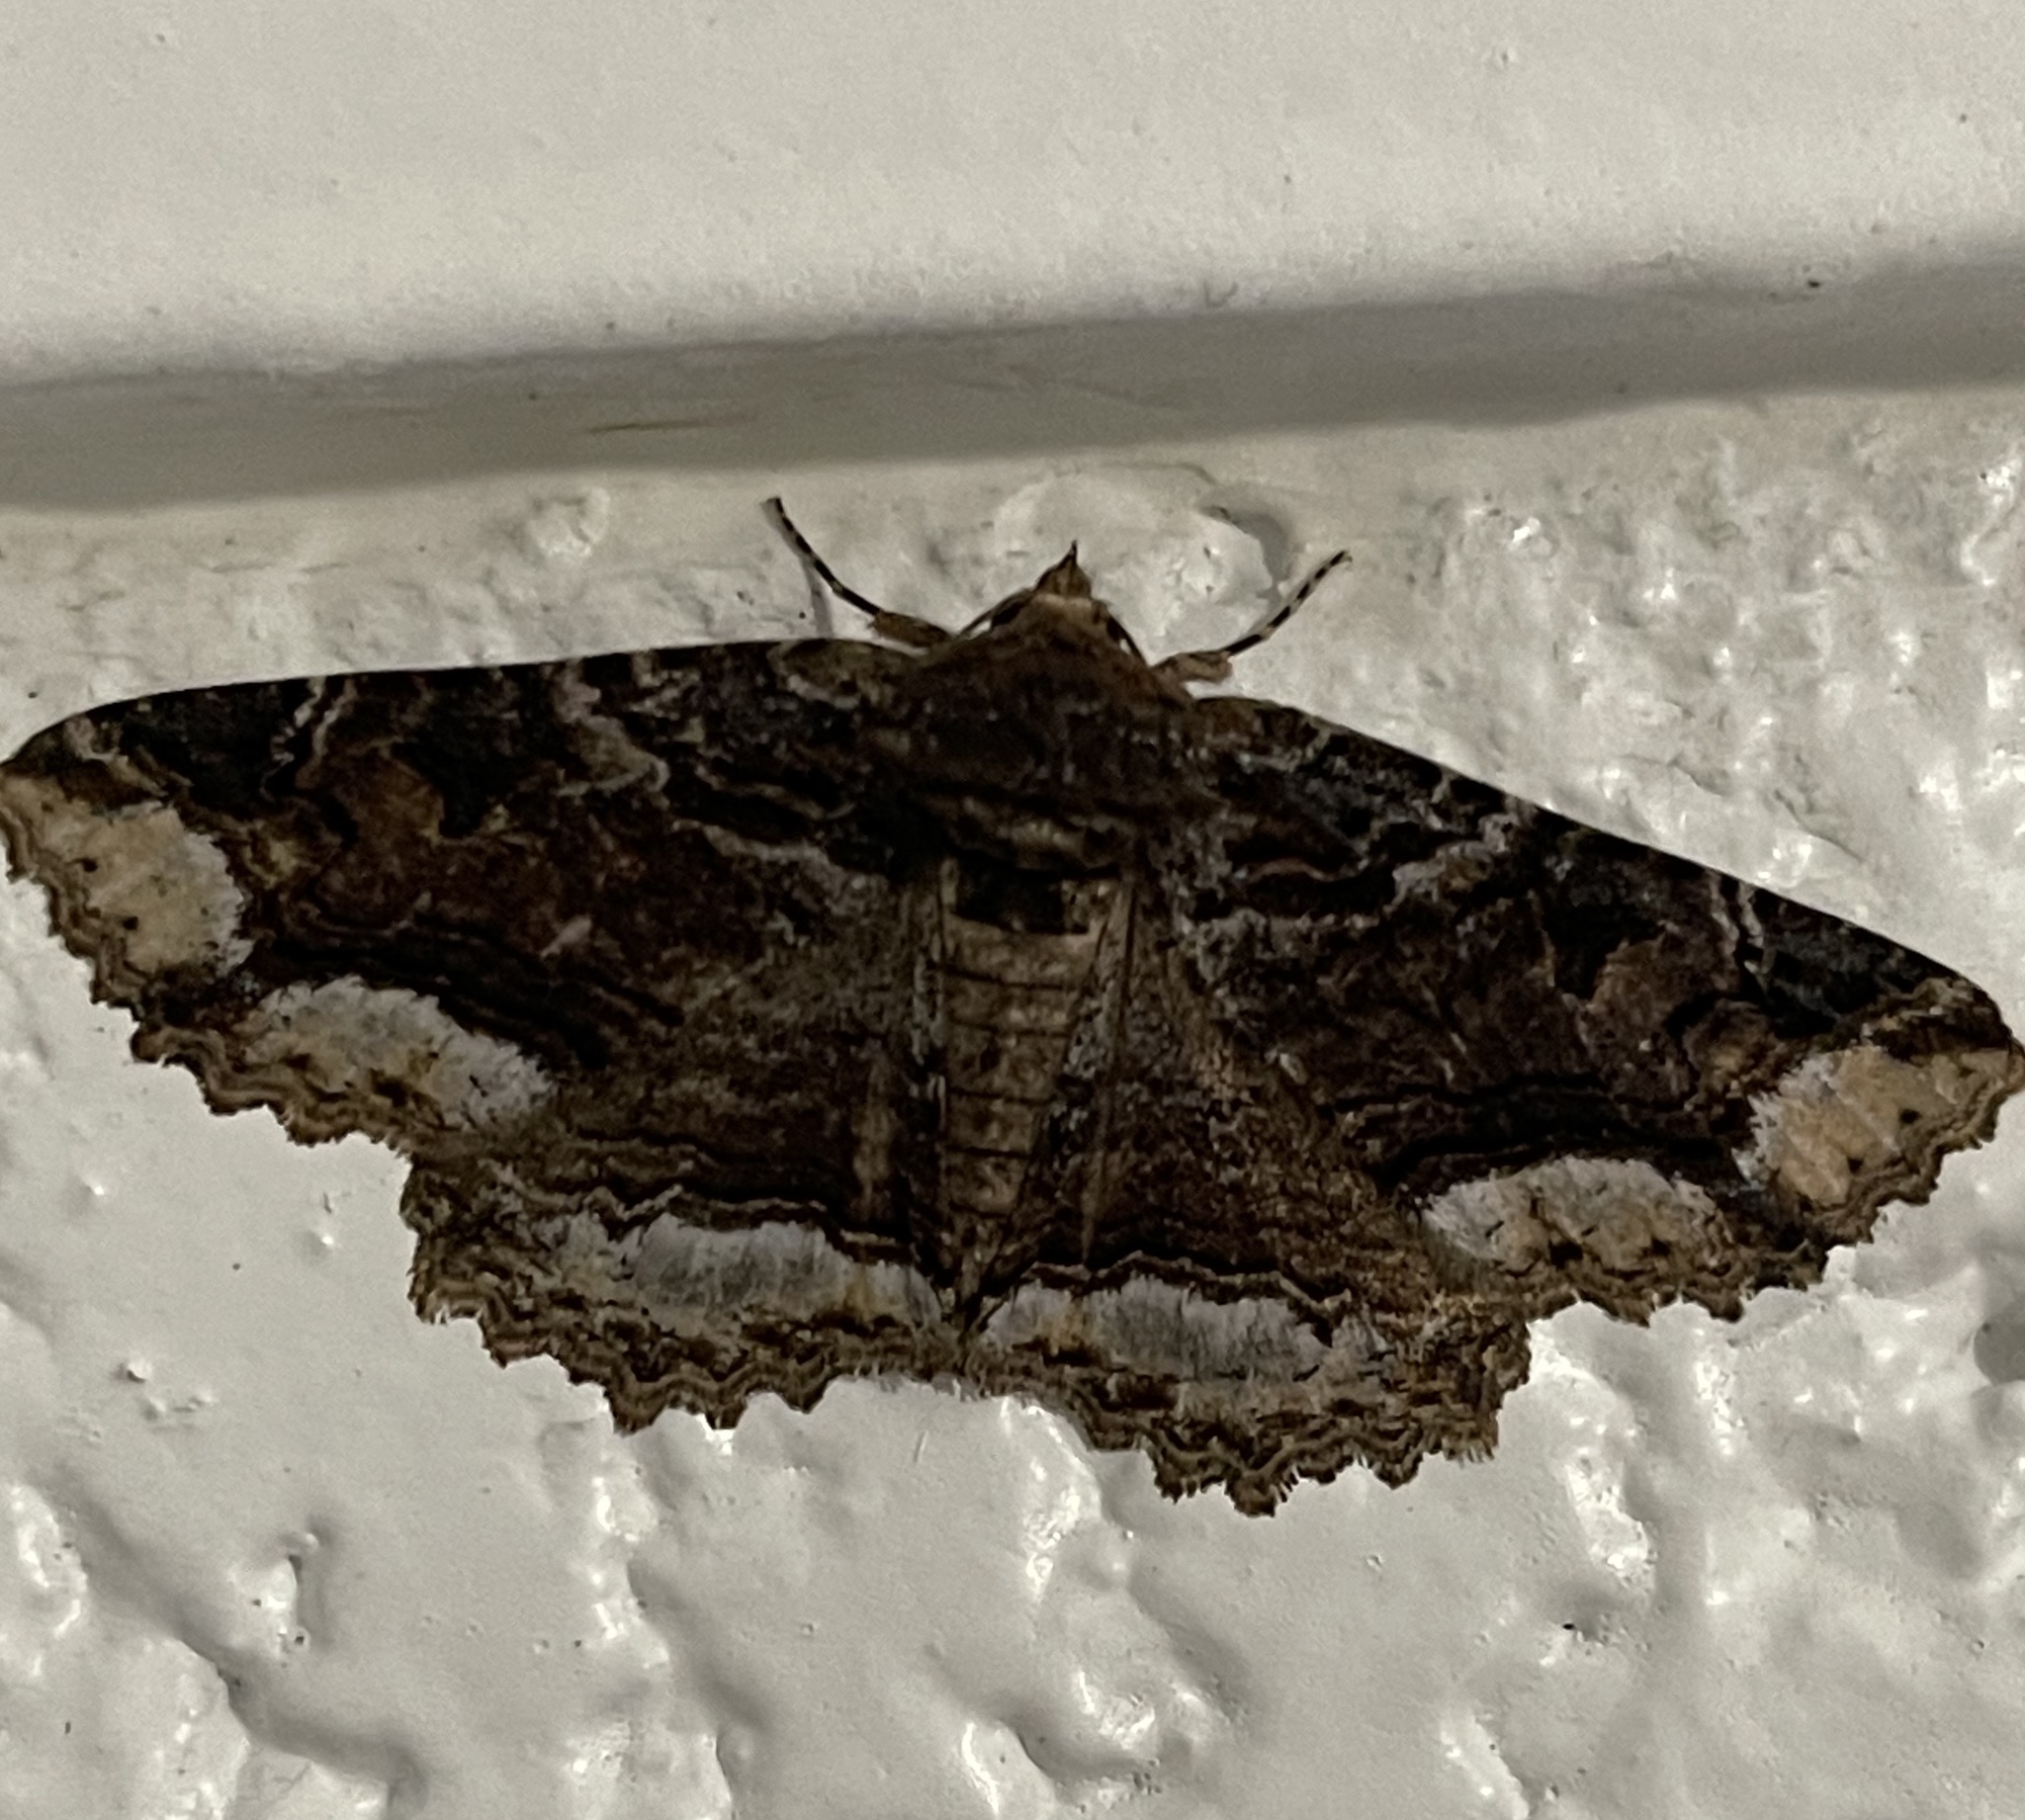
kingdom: Animalia
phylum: Arthropoda
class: Insecta
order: Lepidoptera
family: Erebidae
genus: Zale
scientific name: Zale minerea
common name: Colorful zale moth
